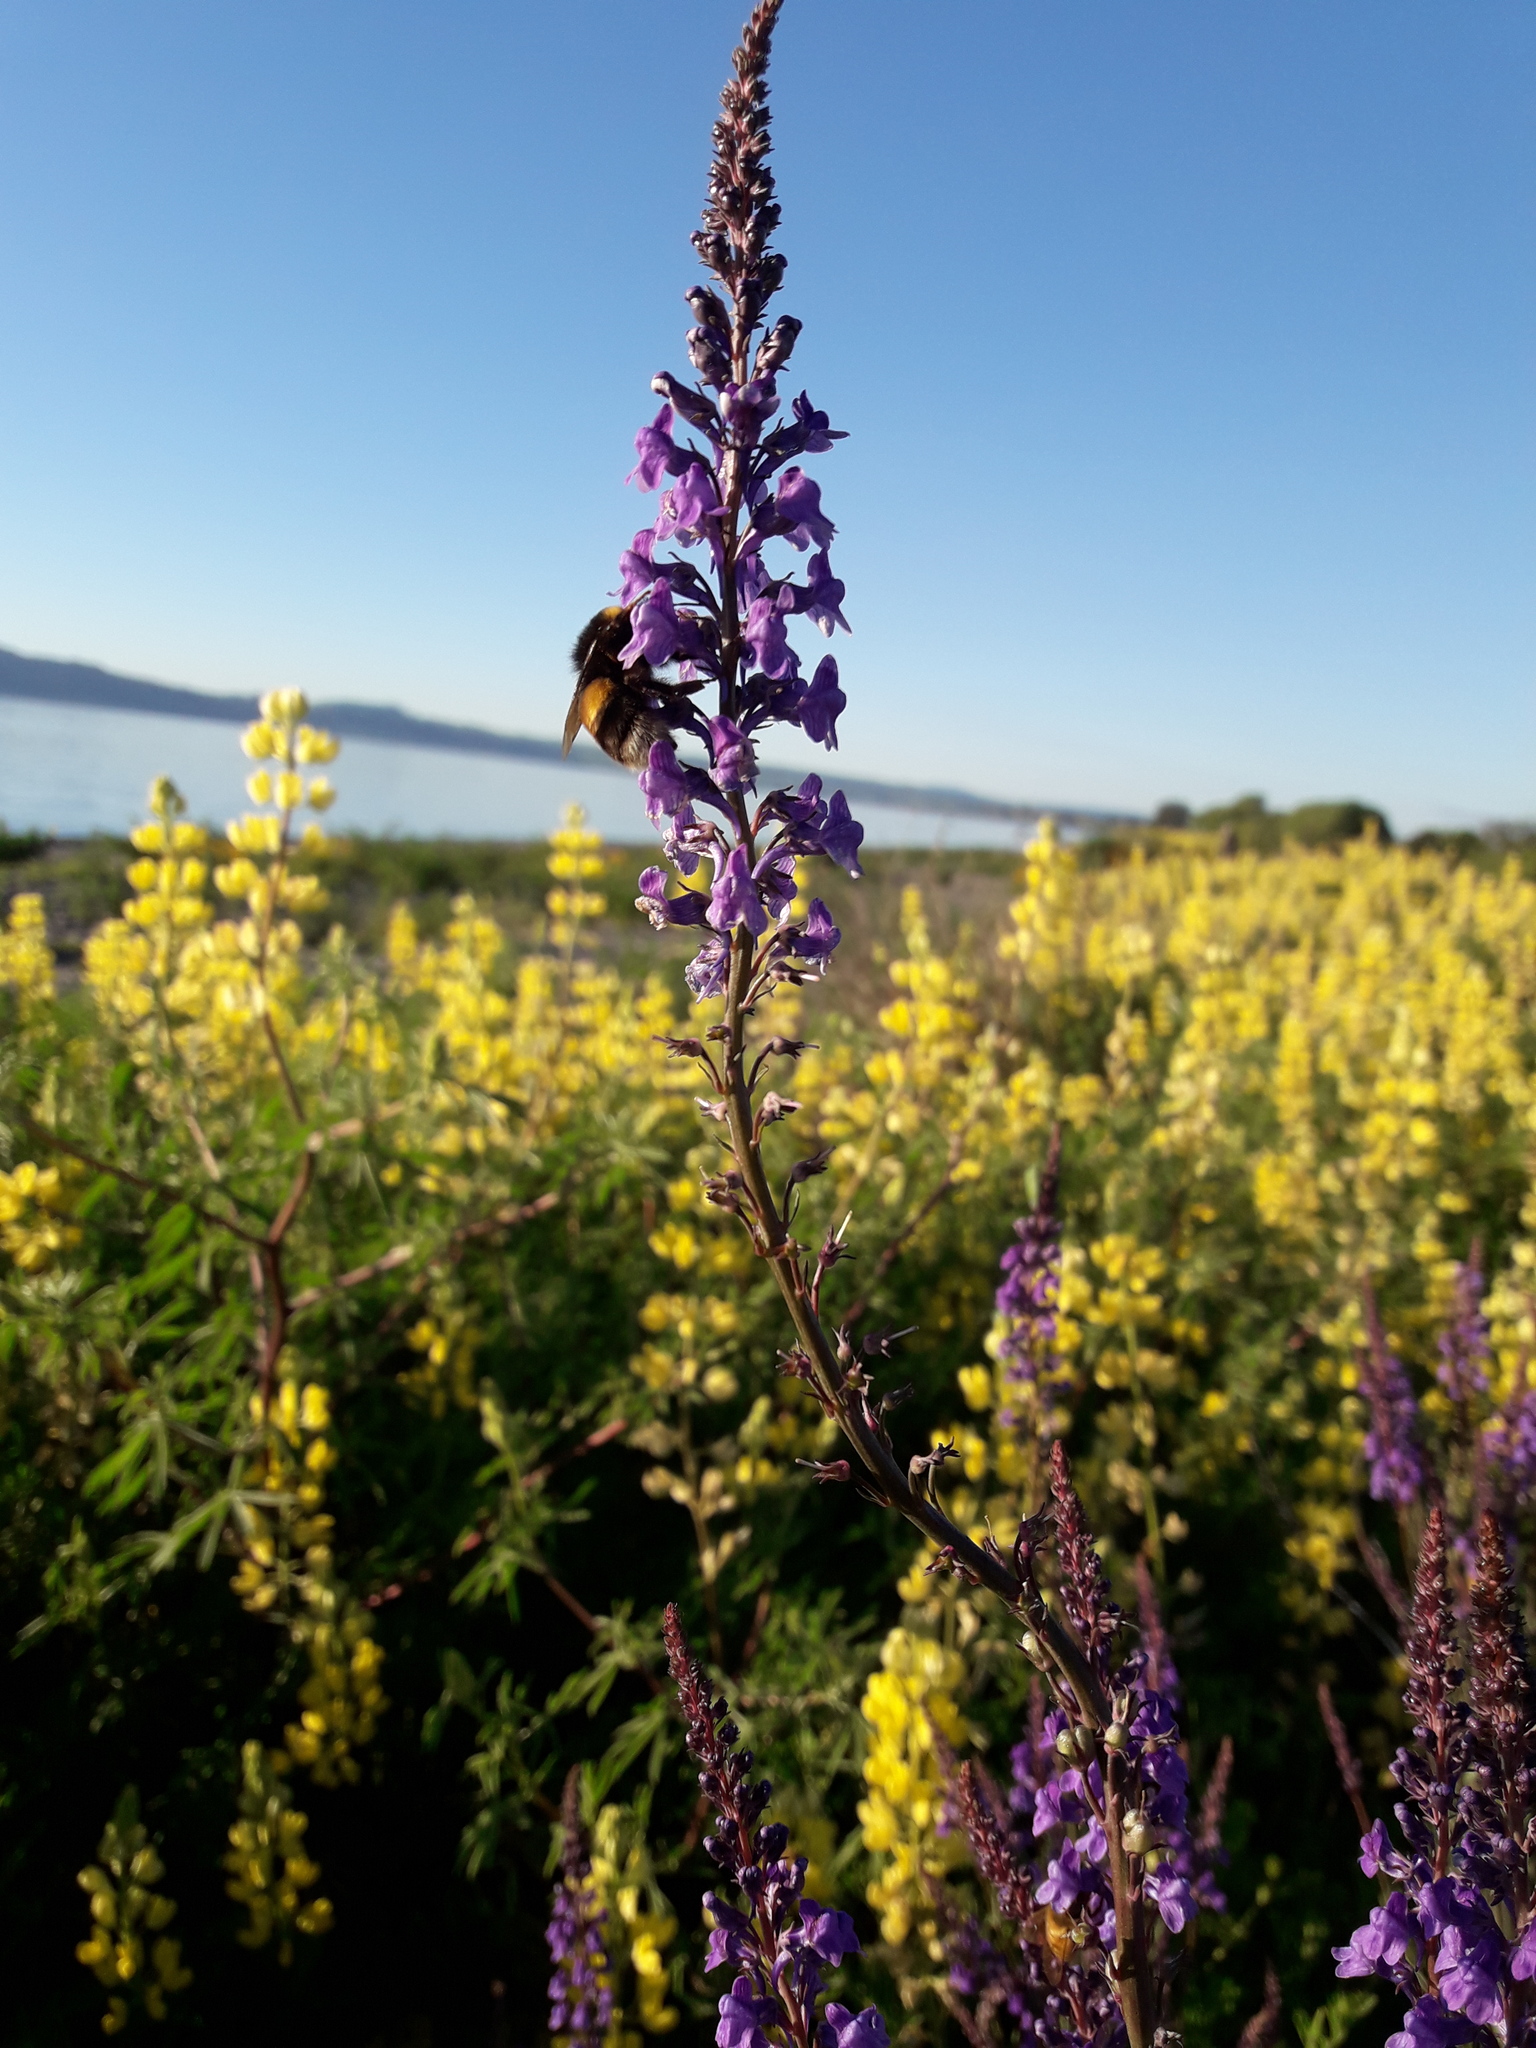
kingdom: Animalia
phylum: Arthropoda
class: Insecta
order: Hymenoptera
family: Apidae
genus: Bombus
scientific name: Bombus terrestris
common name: Buff-tailed bumblebee
